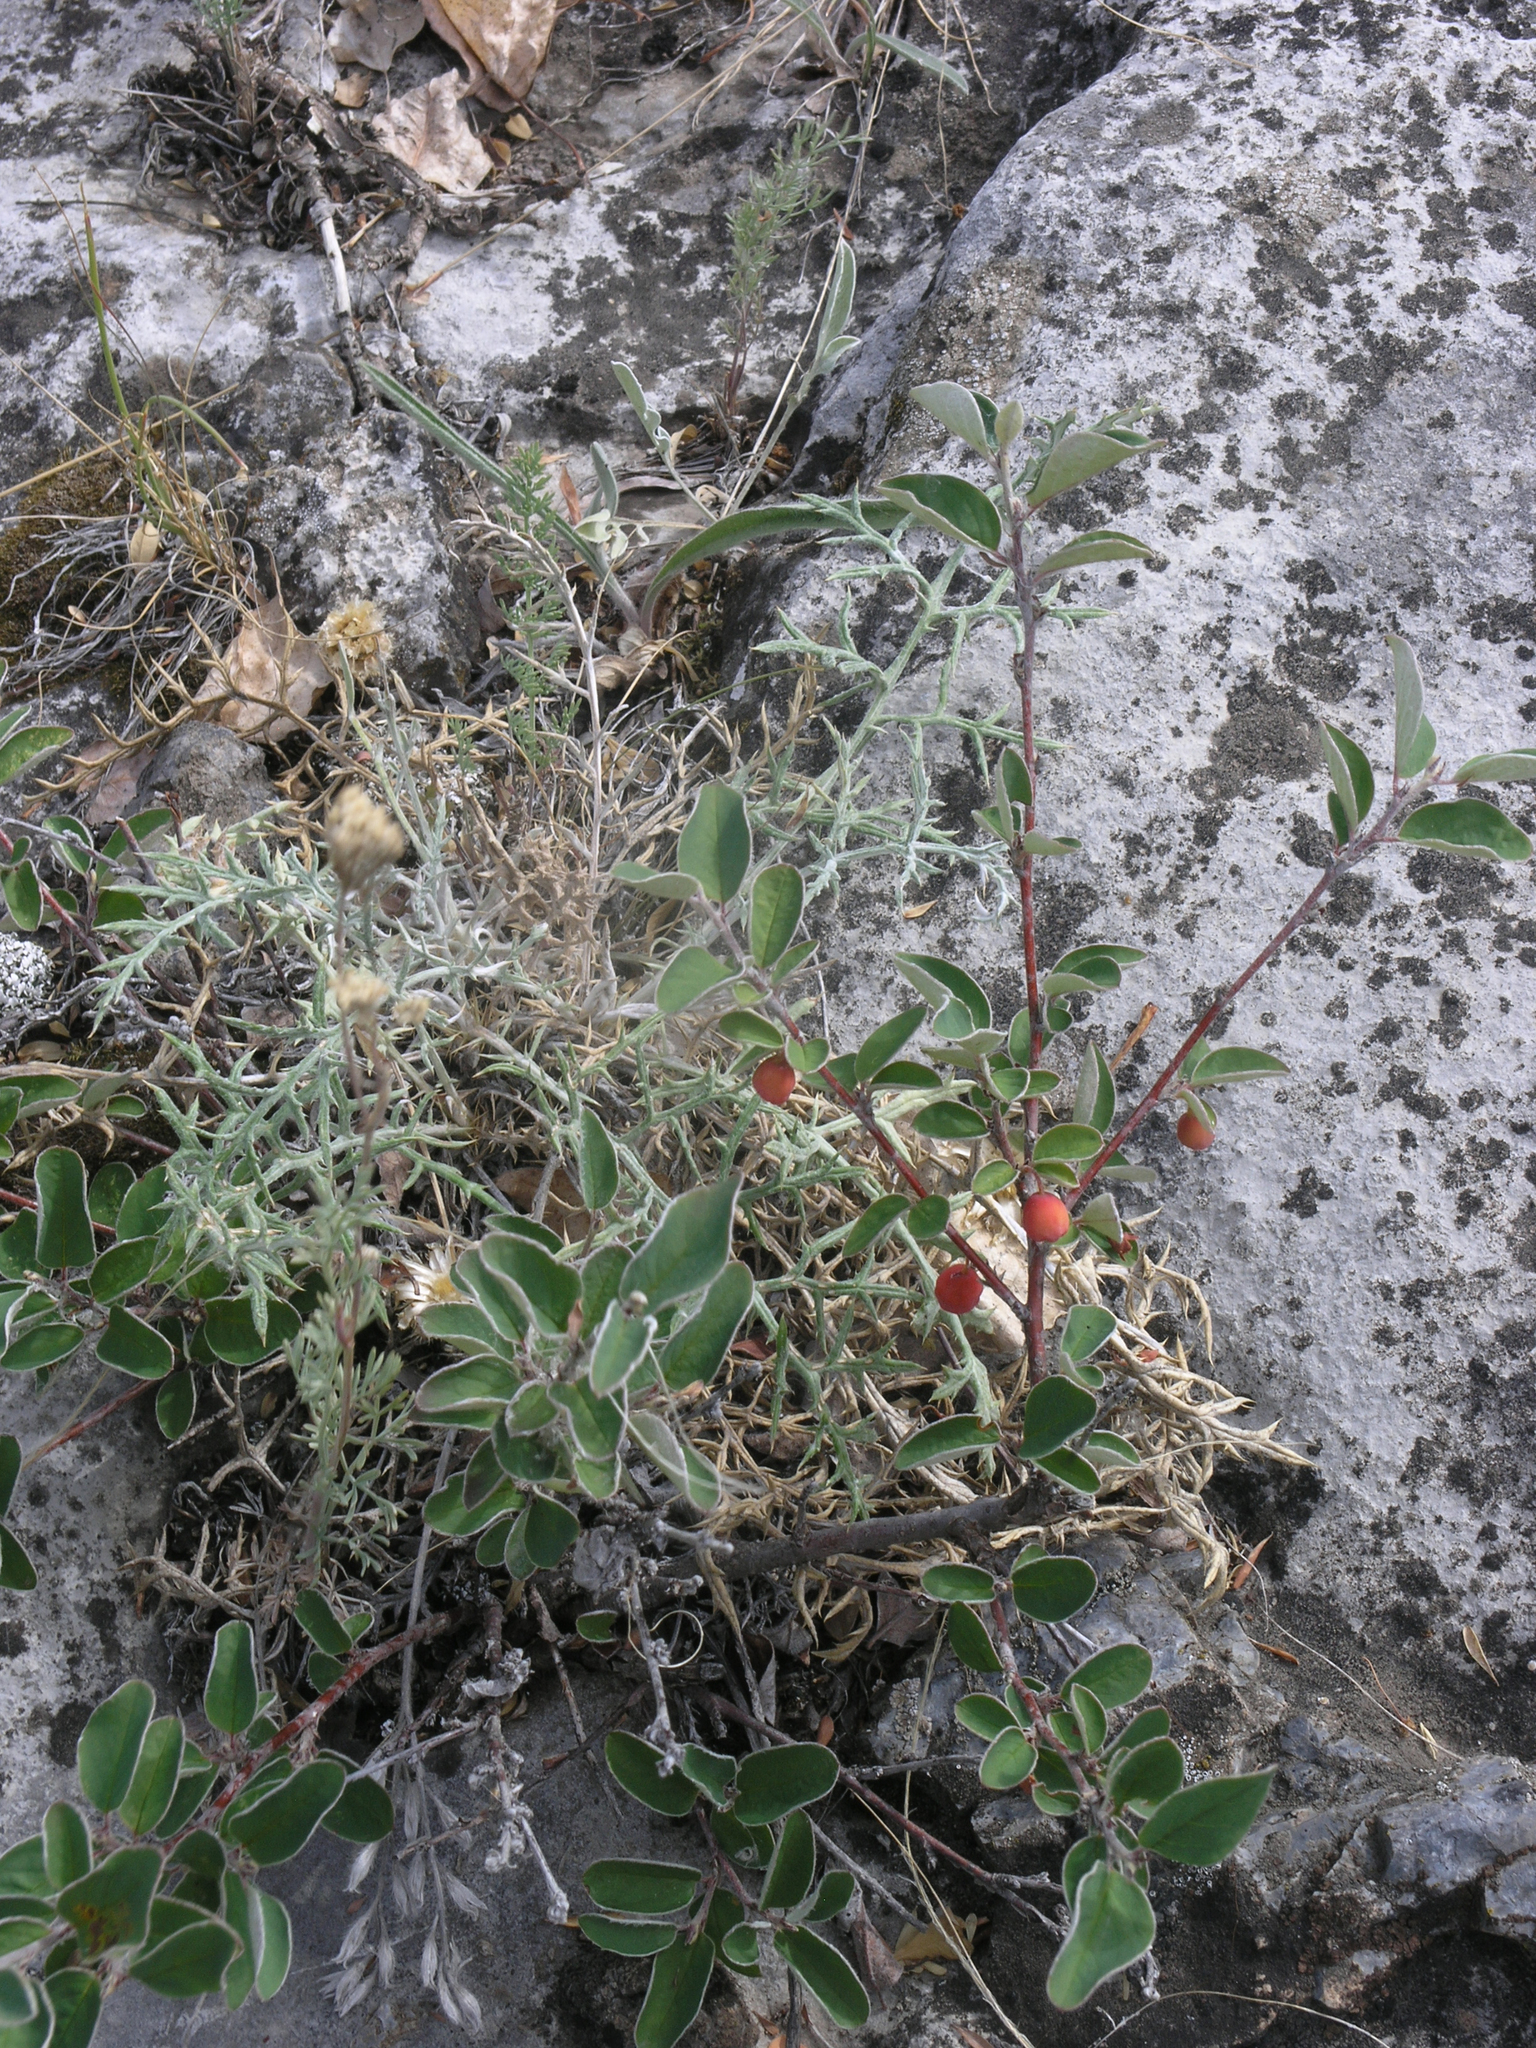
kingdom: Plantae
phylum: Tracheophyta
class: Magnoliopsida
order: Rosales
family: Rosaceae
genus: Cotoneaster
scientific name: Cotoneaster alaunicus
